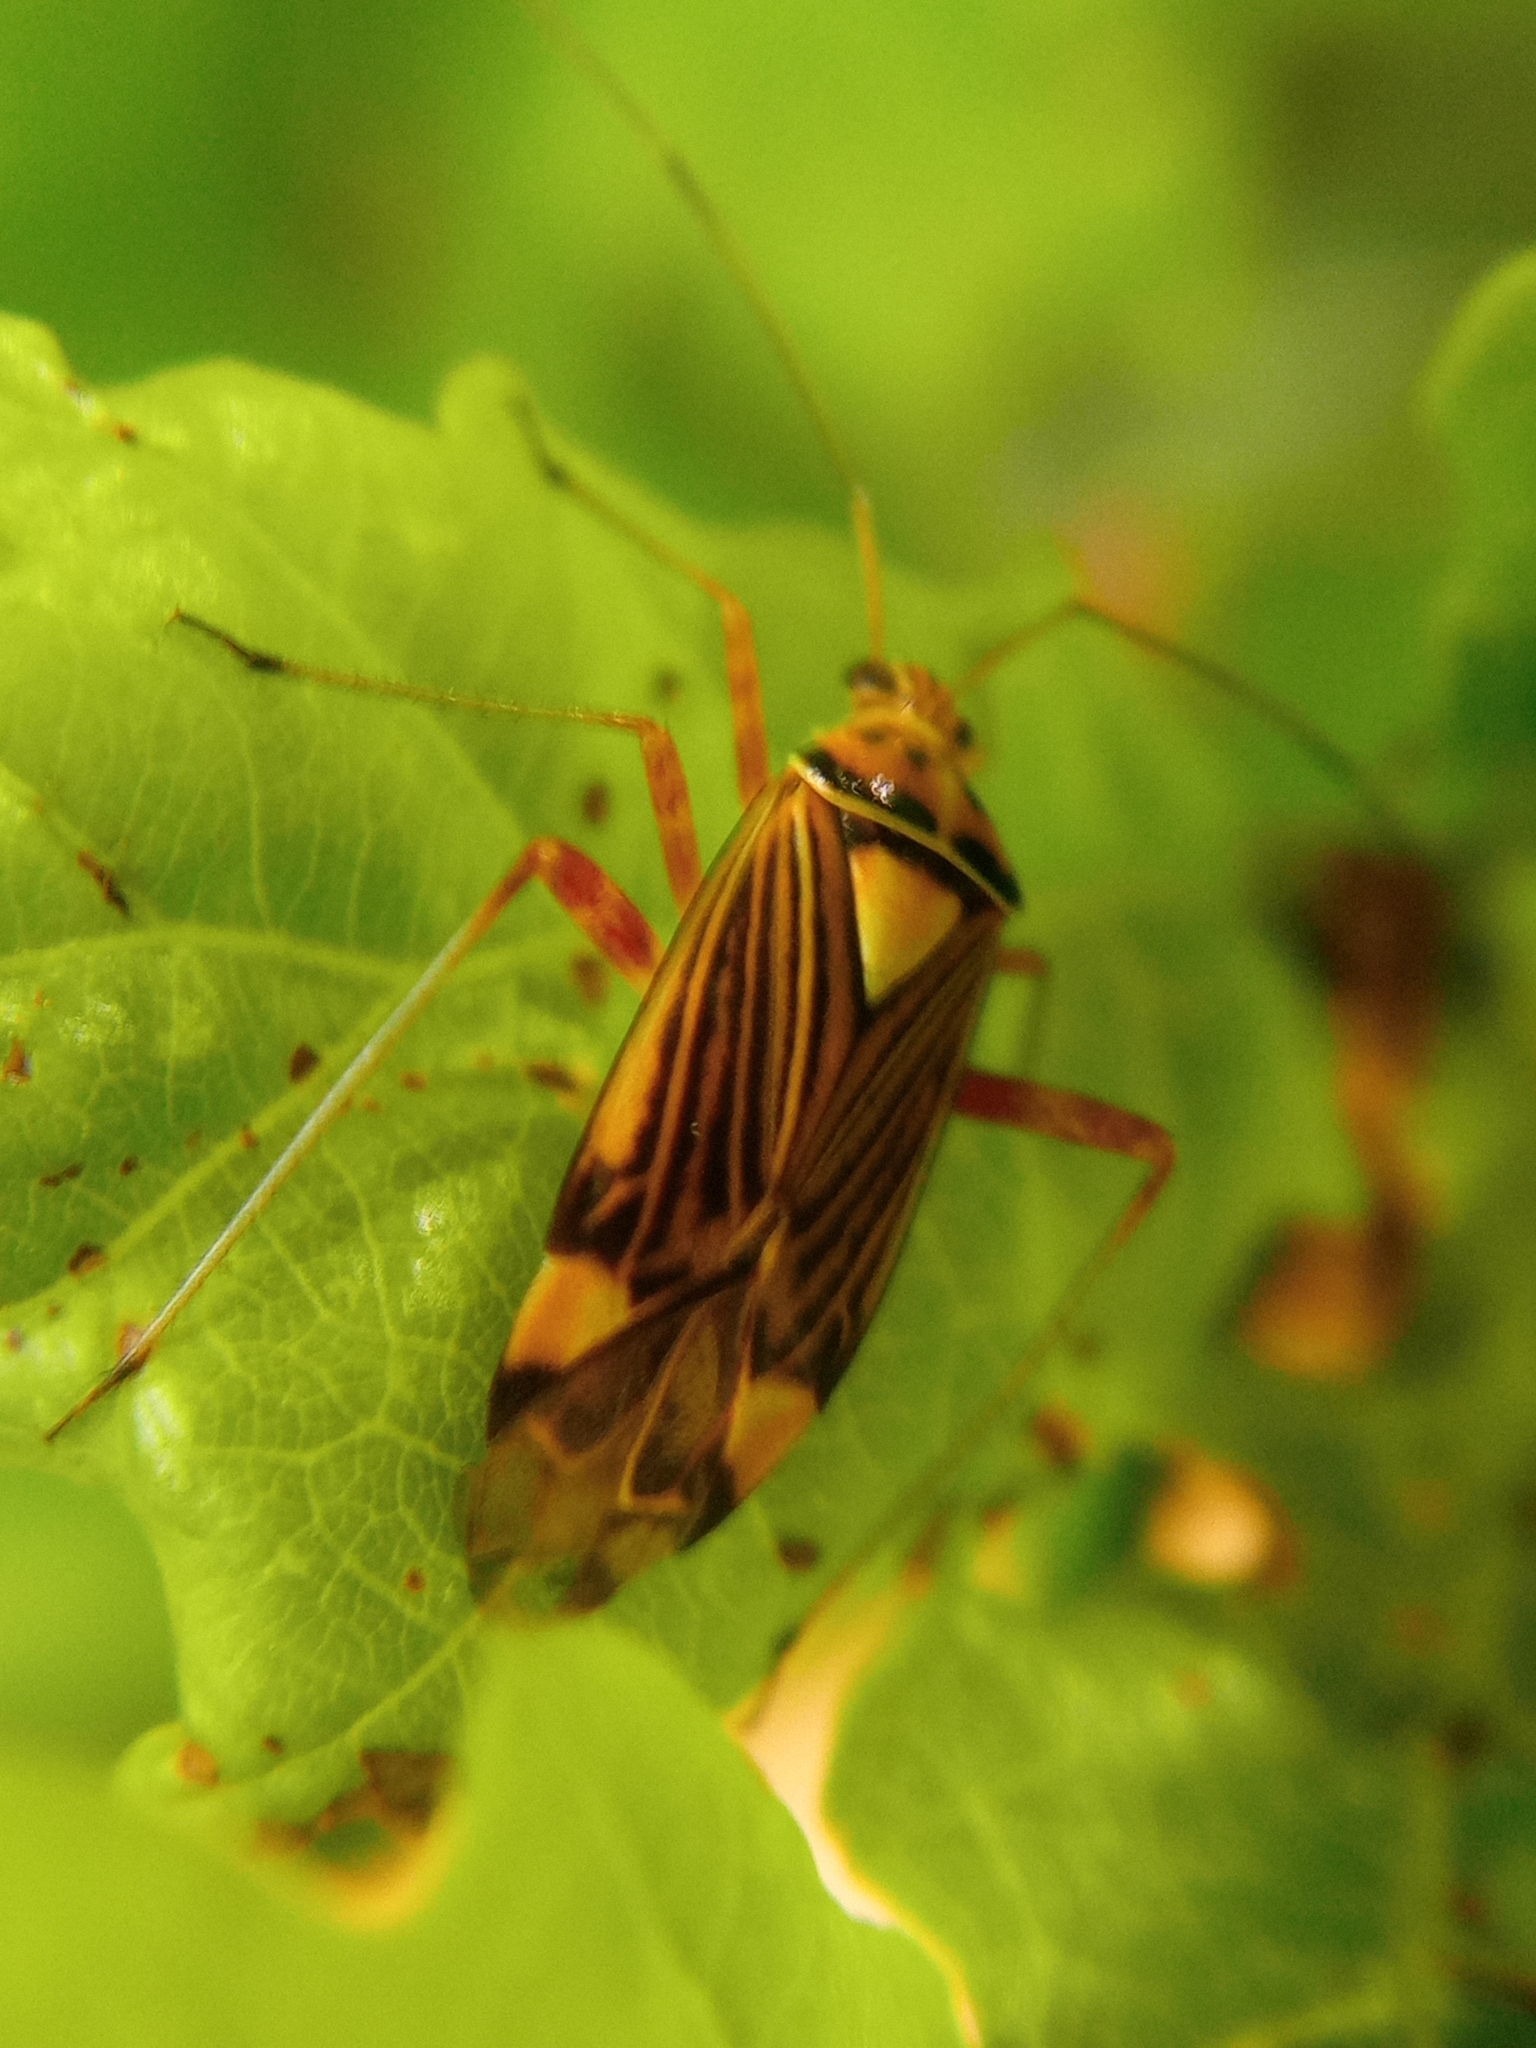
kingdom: Animalia
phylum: Arthropoda
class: Insecta
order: Hemiptera
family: Miridae
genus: Rhabdomiris
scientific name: Rhabdomiris striatellus
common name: Plant bug
